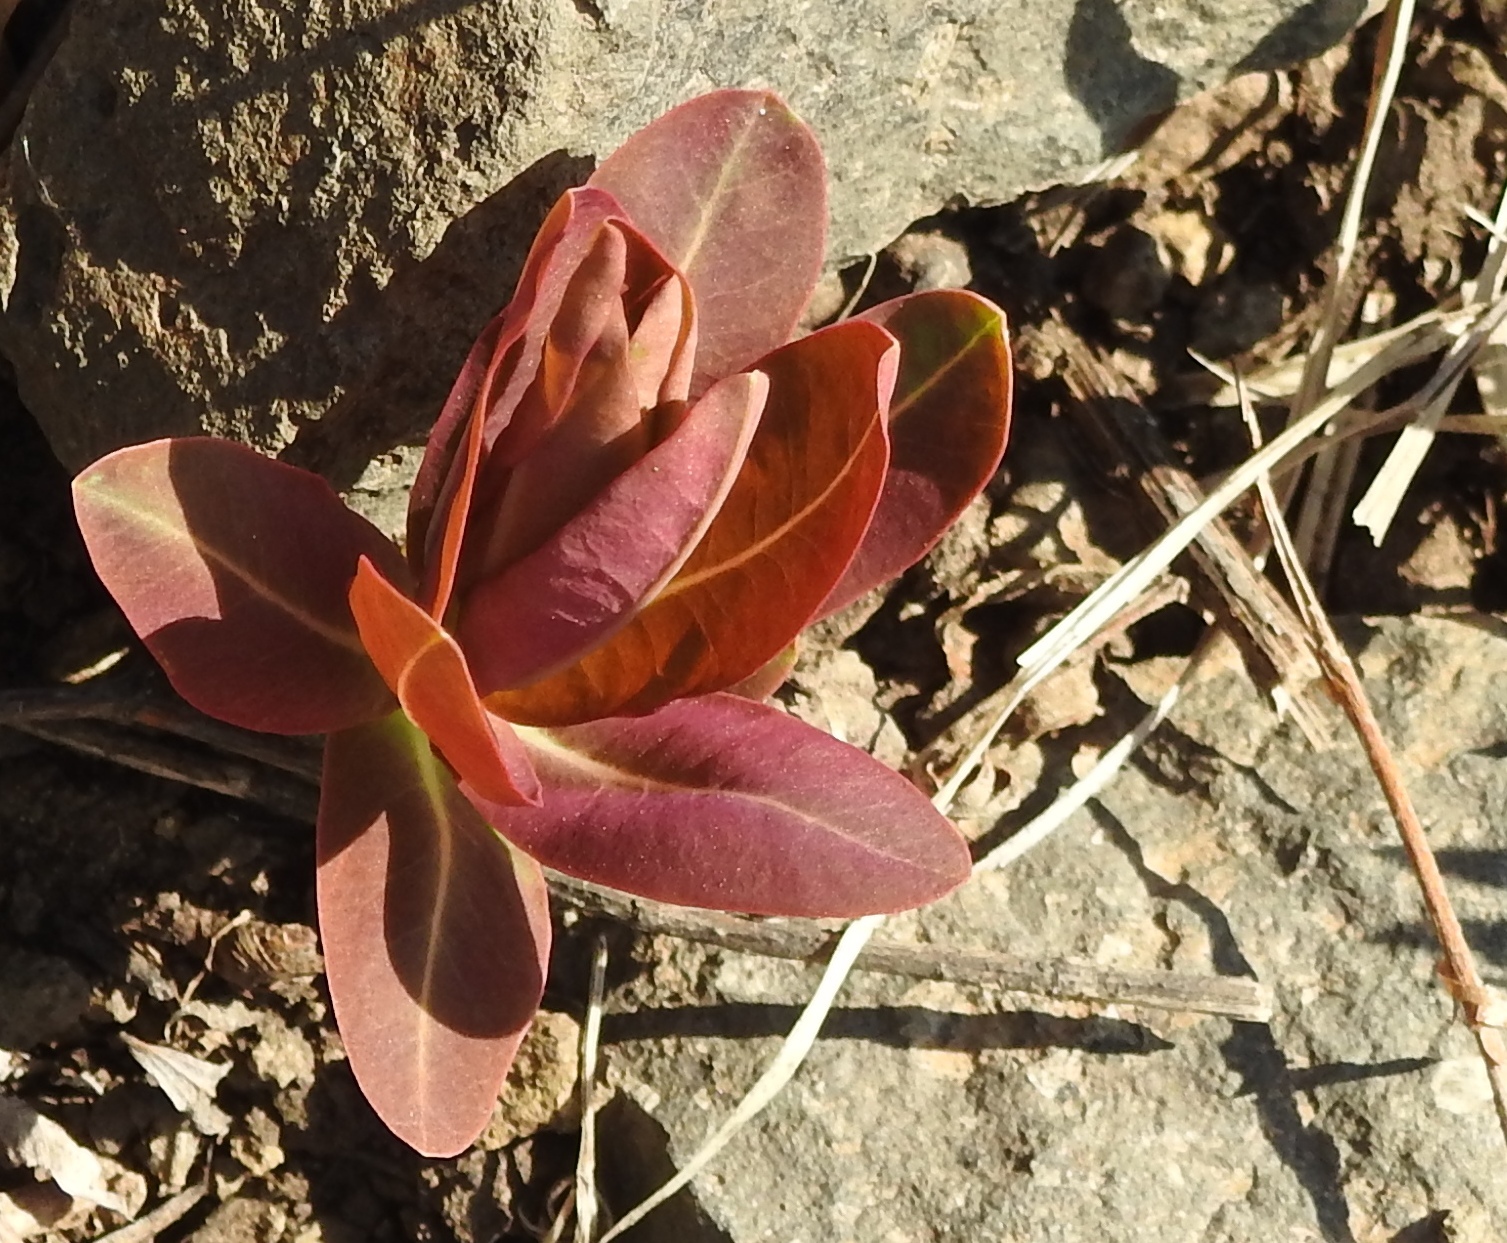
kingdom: Plantae
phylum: Tracheophyta
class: Magnoliopsida
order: Malpighiales
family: Euphorbiaceae
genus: Euphorbia
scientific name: Euphorbia fischeriana
